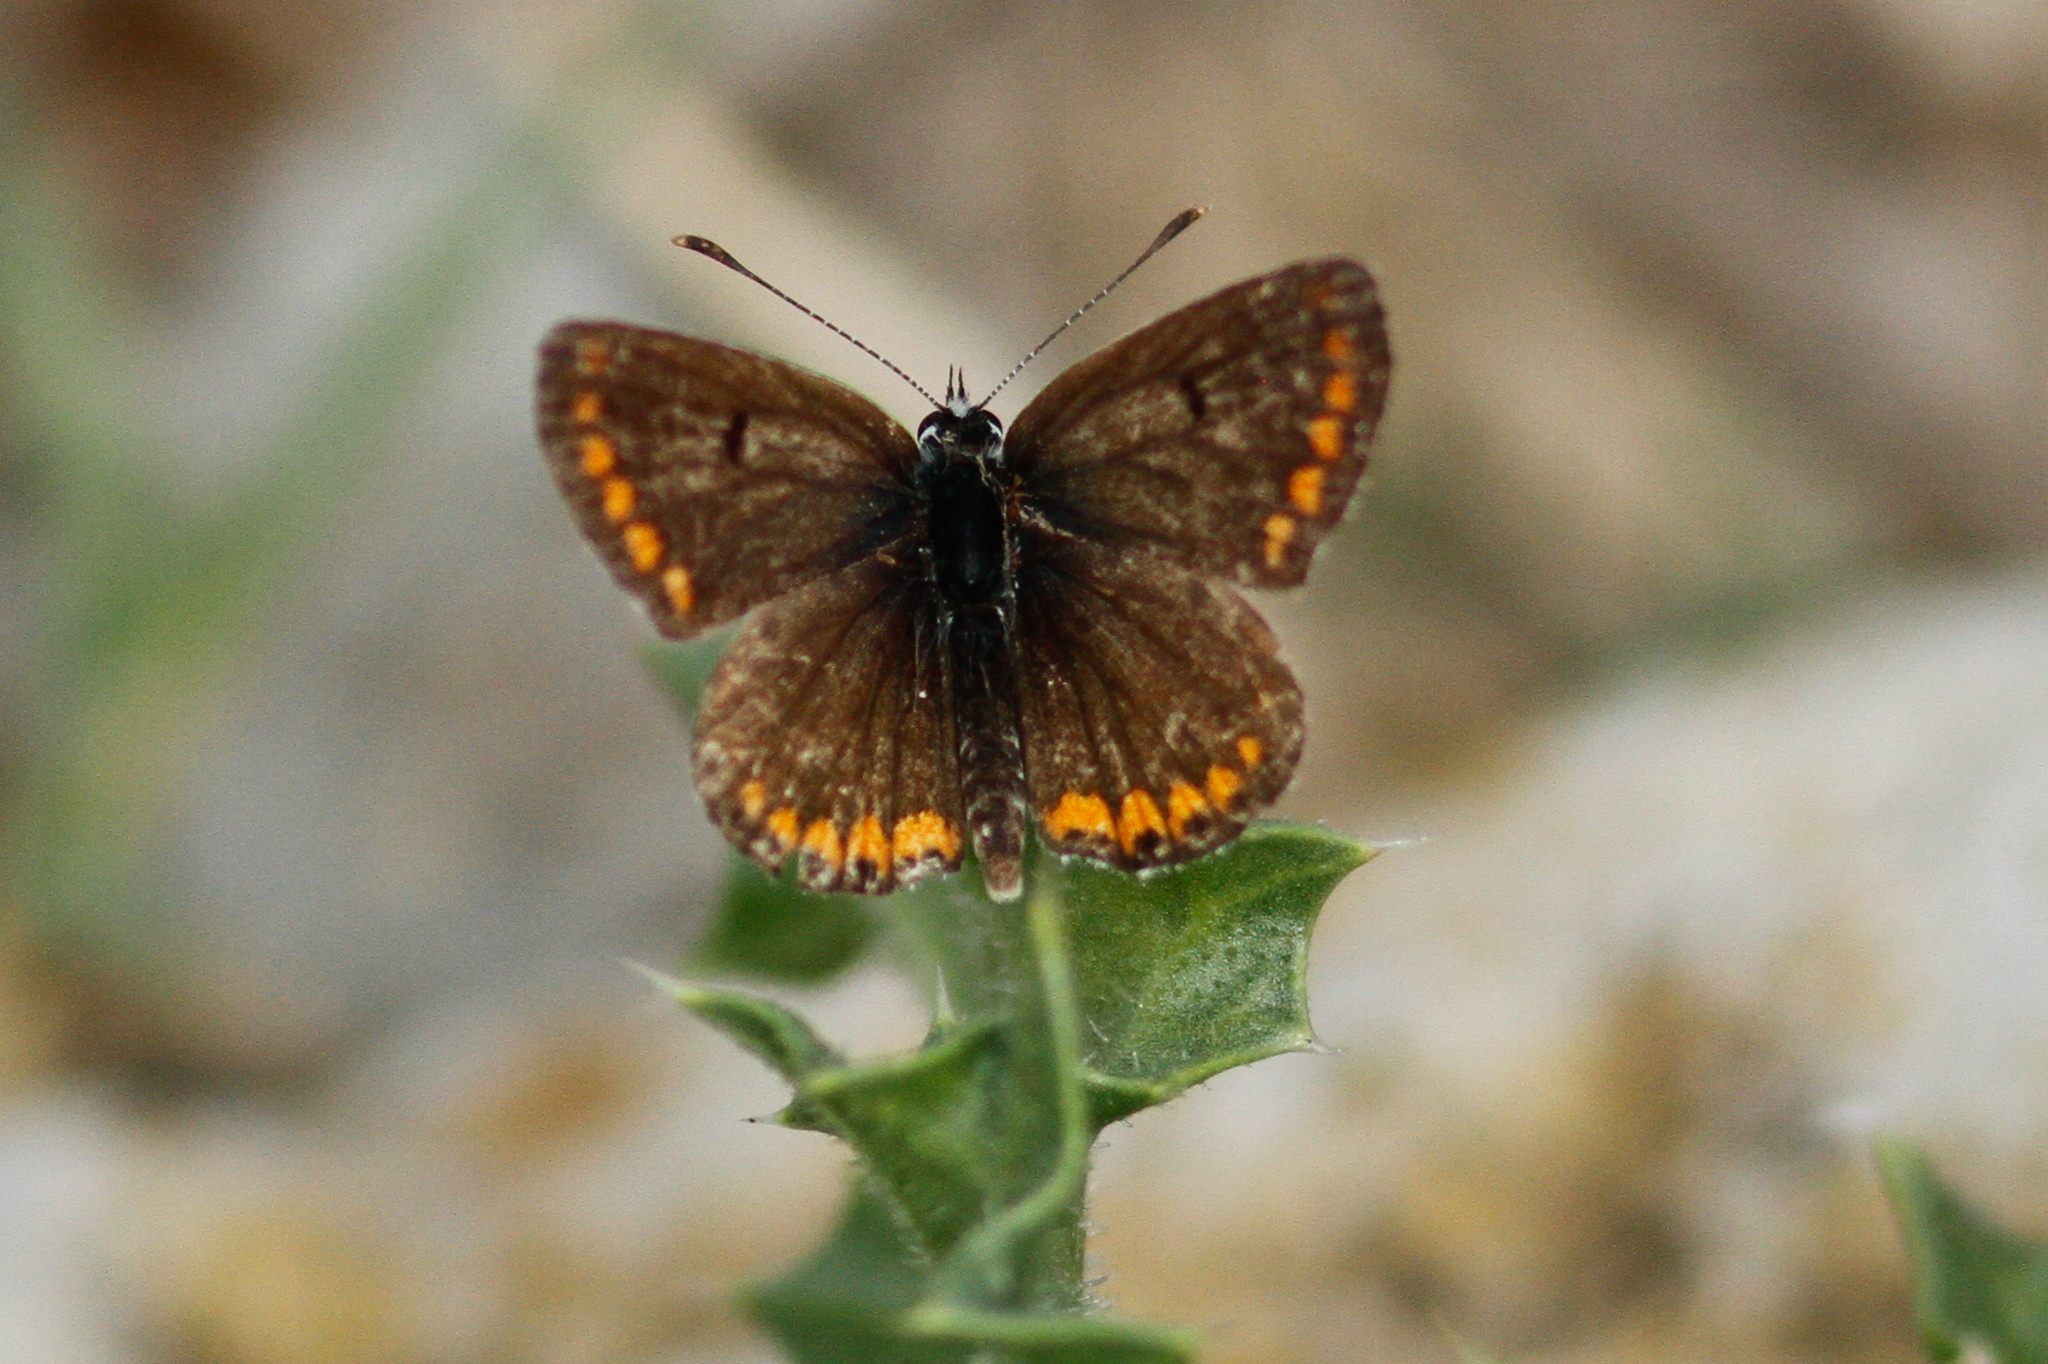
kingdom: Animalia
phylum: Arthropoda
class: Insecta
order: Lepidoptera
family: Lycaenidae
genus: Aricia
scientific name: Aricia agestis
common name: Brown argus
